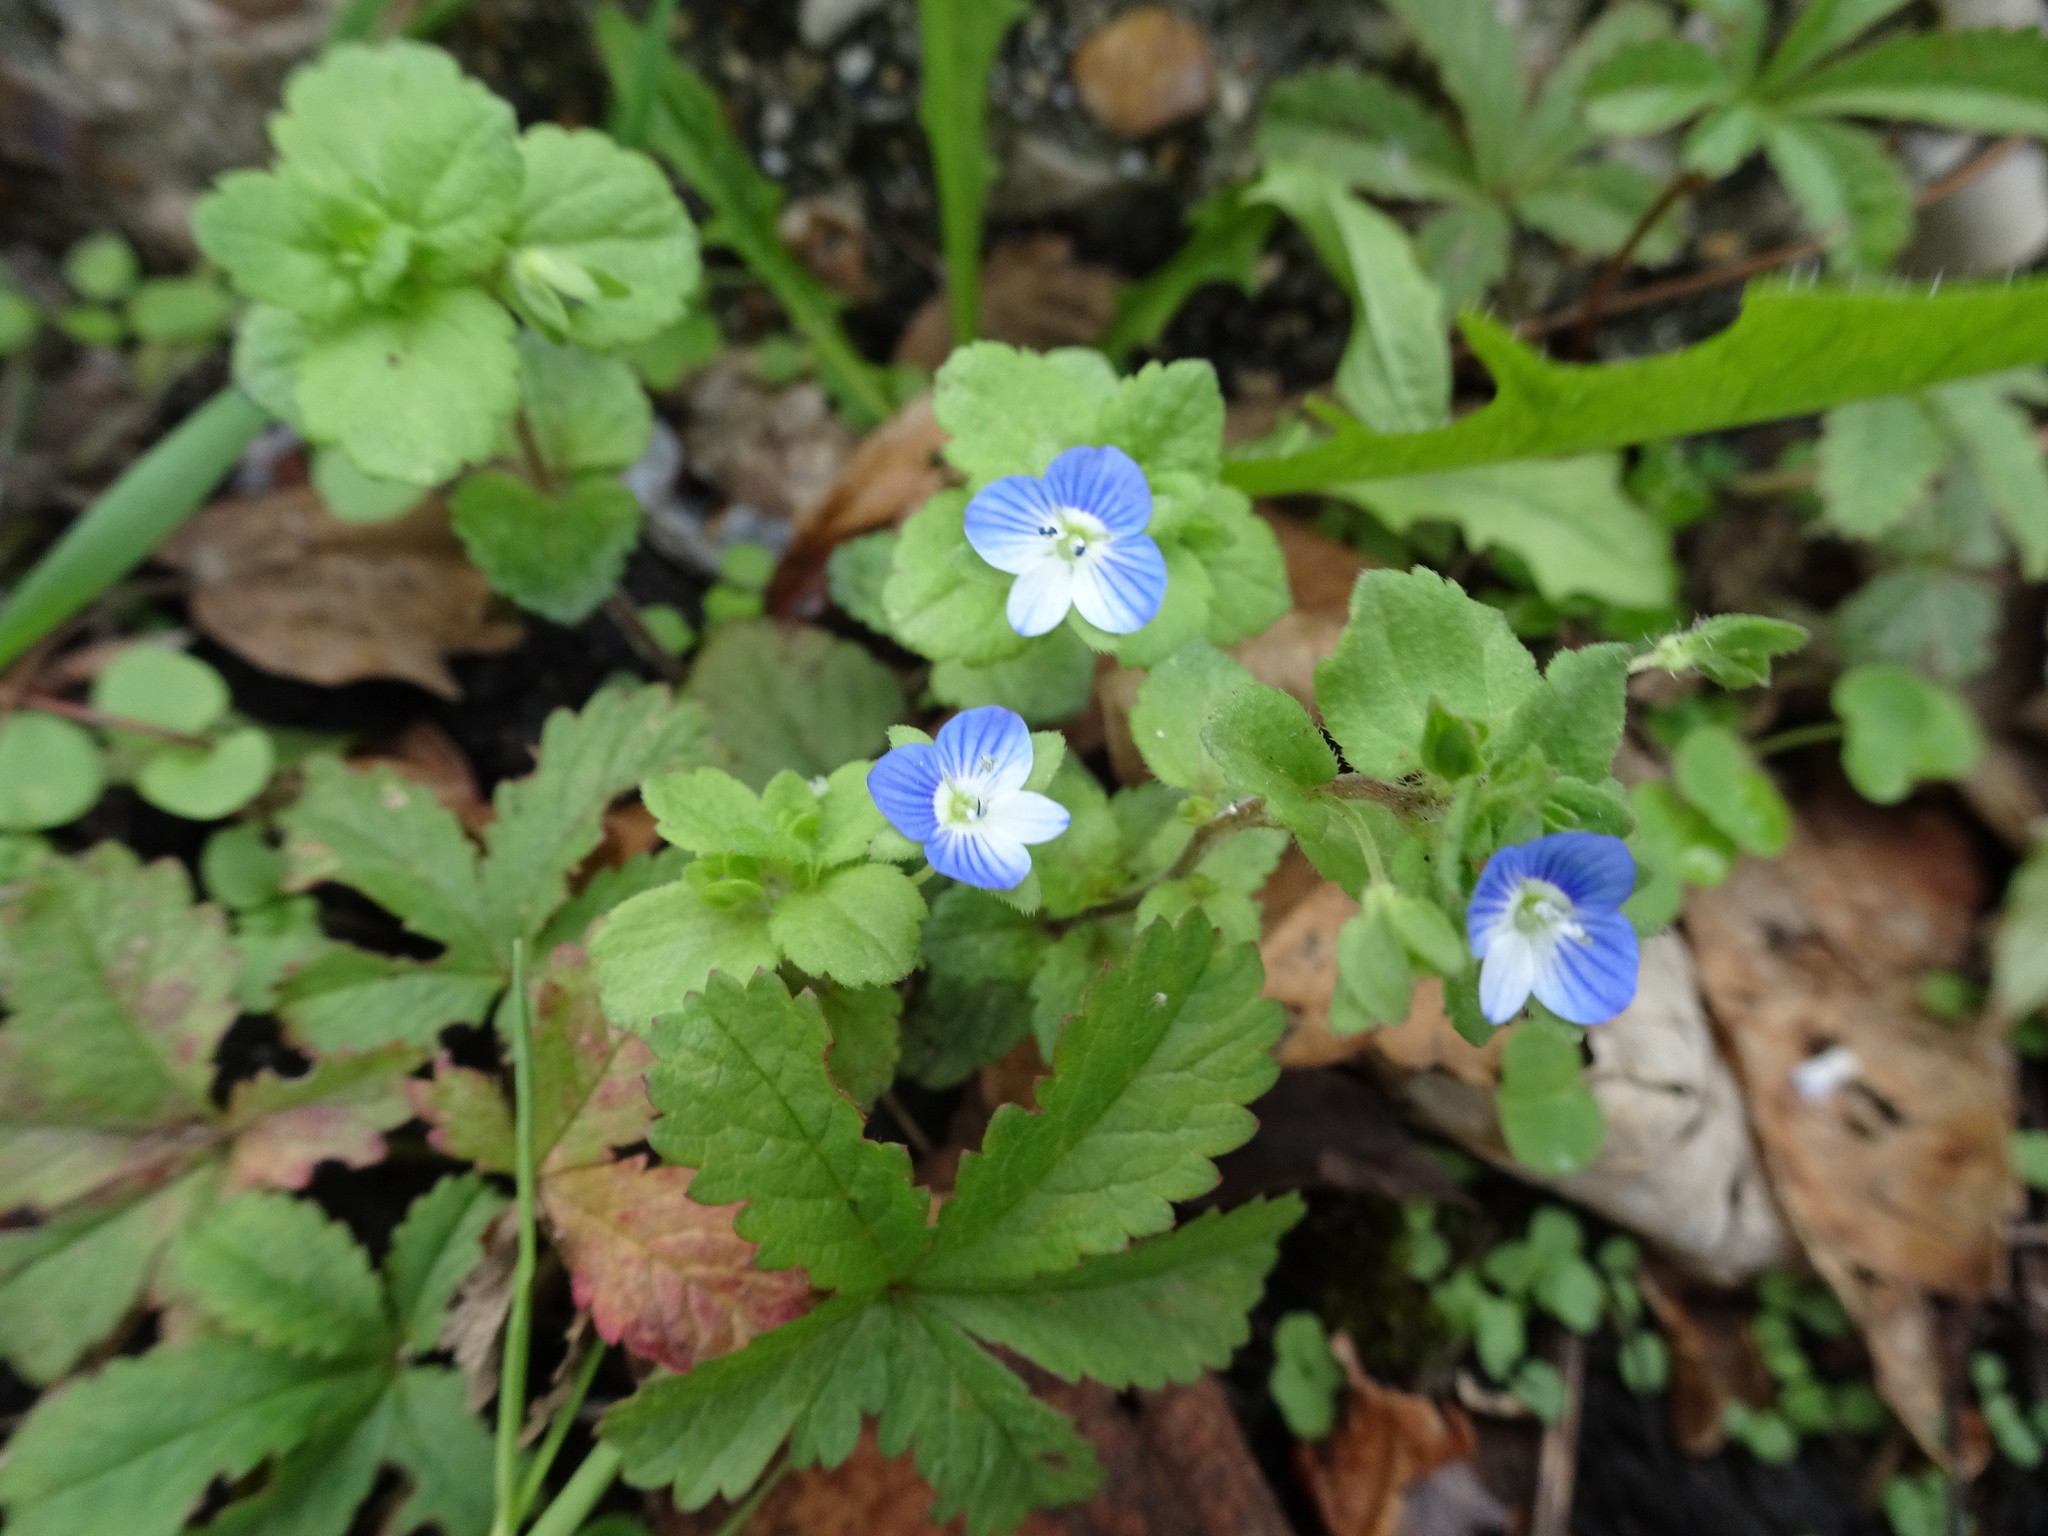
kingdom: Plantae
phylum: Tracheophyta
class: Magnoliopsida
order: Lamiales
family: Plantaginaceae
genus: Veronica
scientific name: Veronica persica
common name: Common field-speedwell
